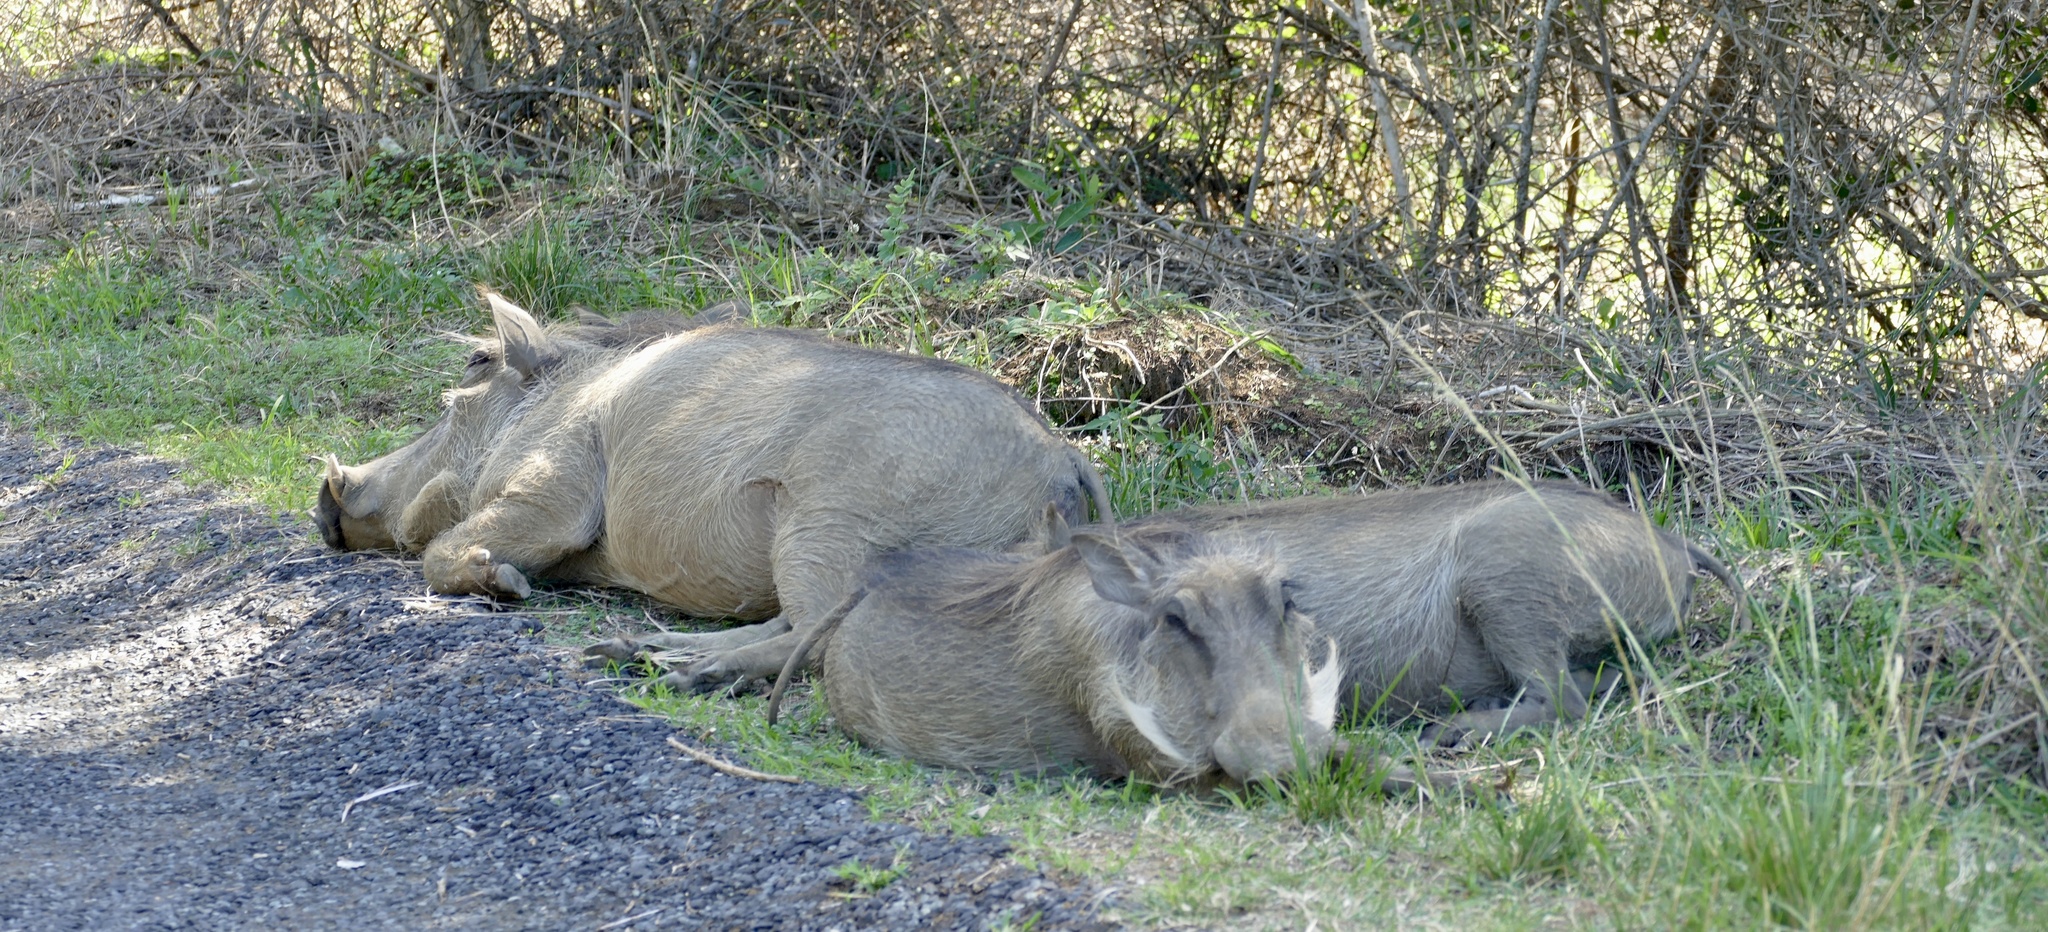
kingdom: Animalia
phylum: Chordata
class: Mammalia
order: Artiodactyla
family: Suidae
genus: Phacochoerus
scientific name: Phacochoerus africanus
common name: Common warthog
